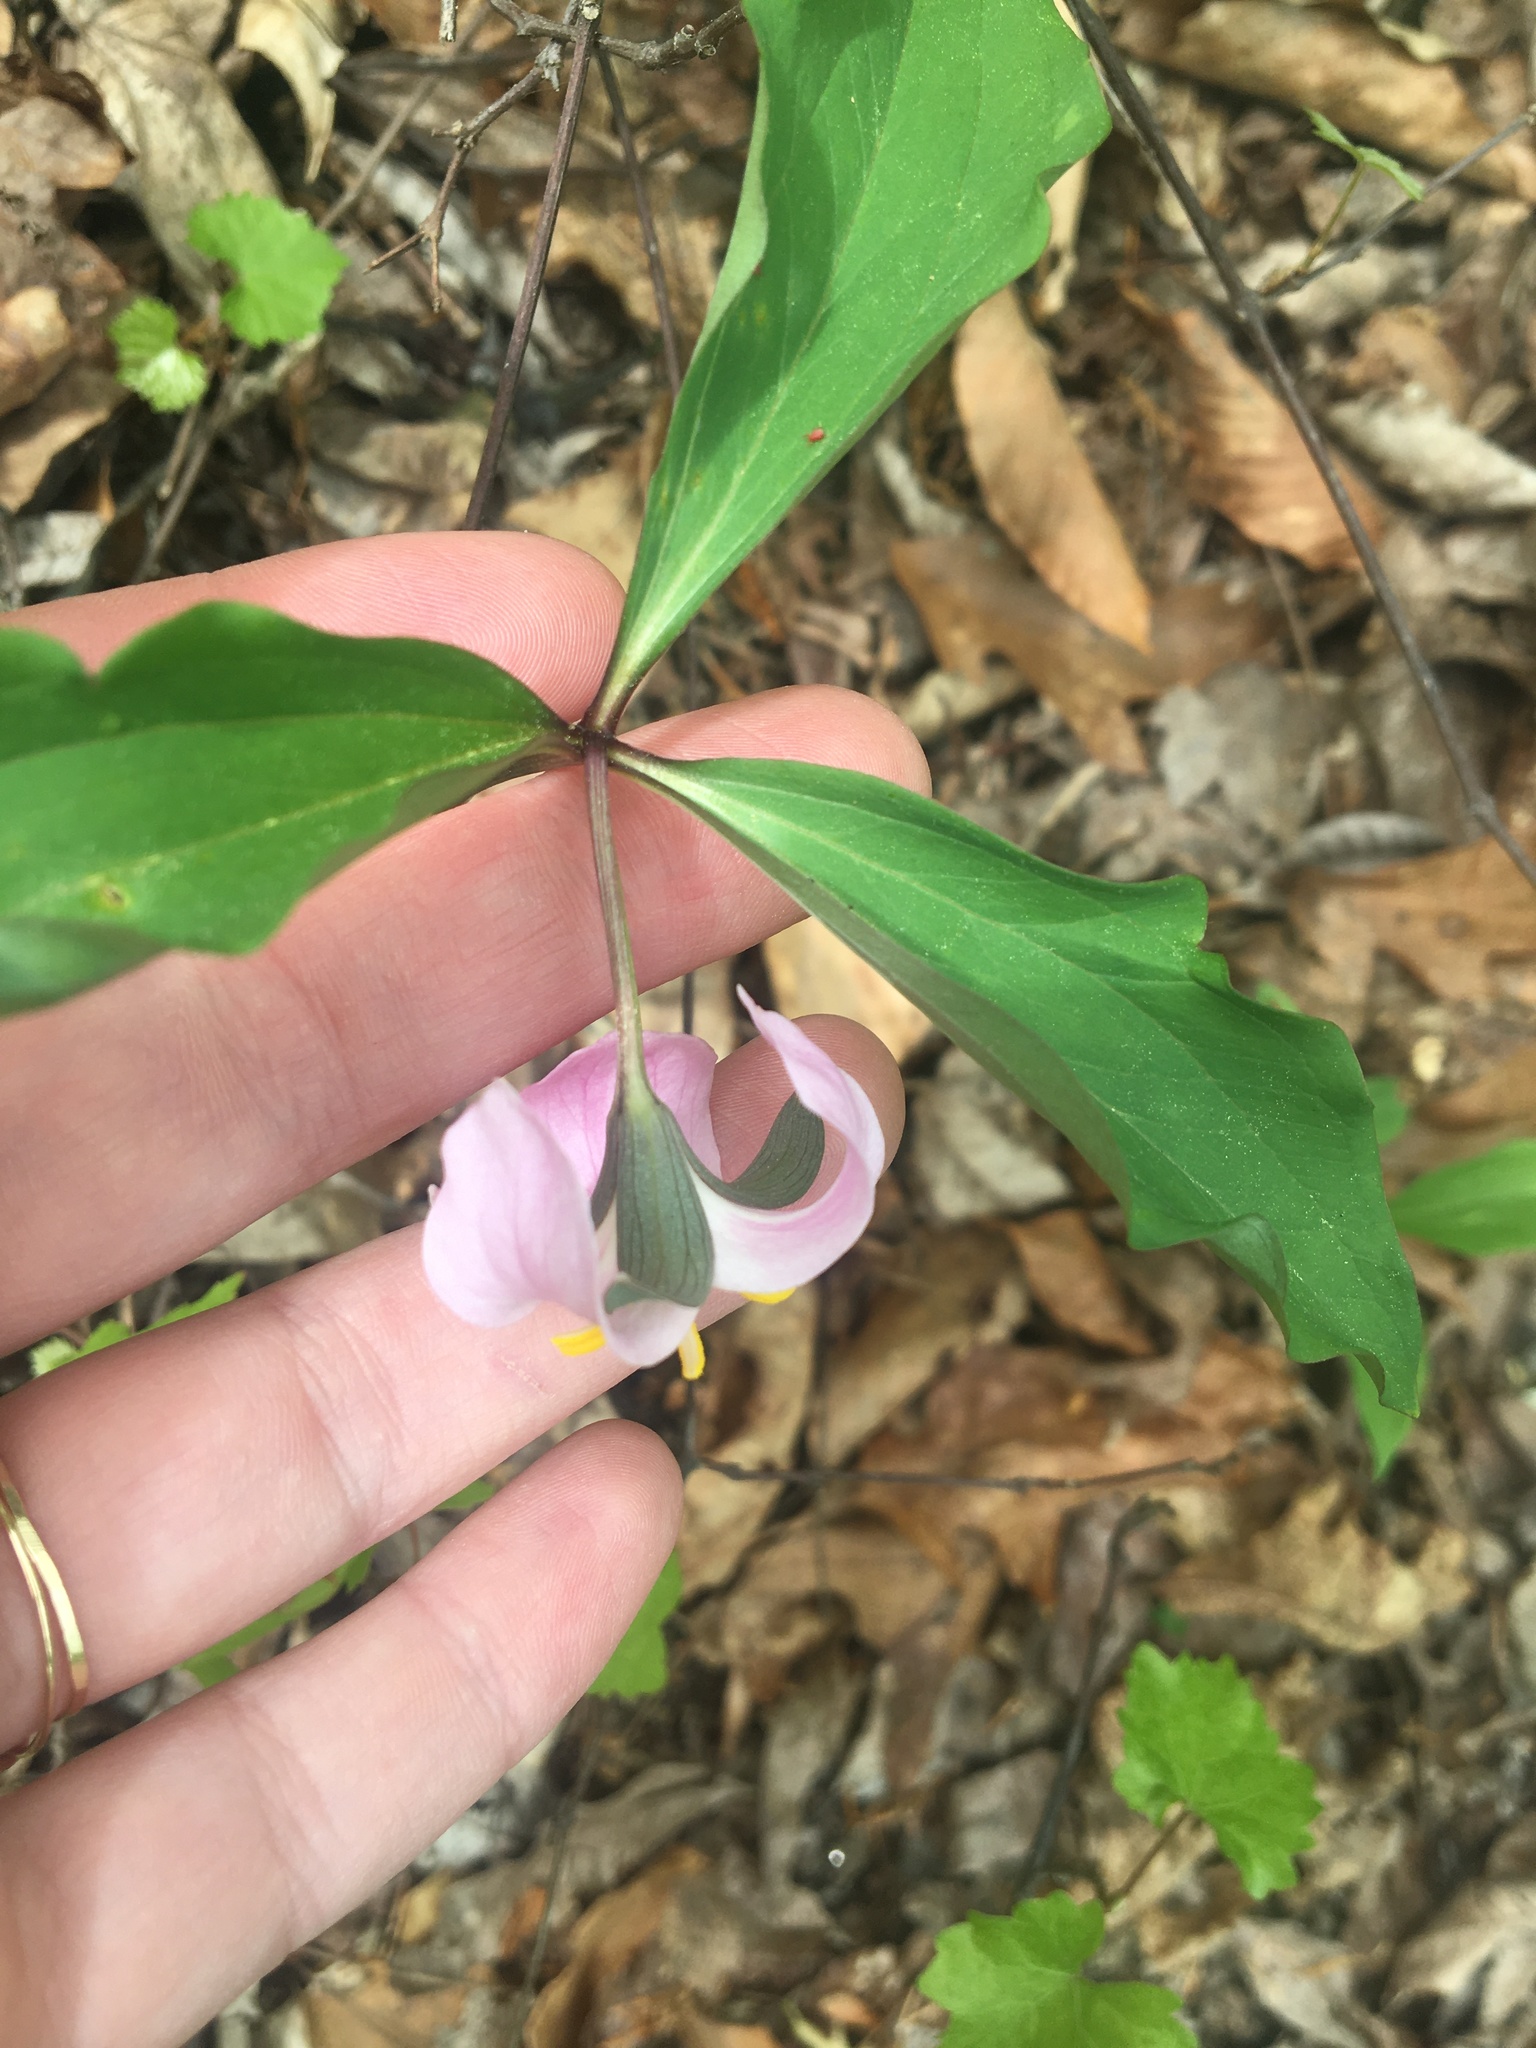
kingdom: Plantae
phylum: Tracheophyta
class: Liliopsida
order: Liliales
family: Melanthiaceae
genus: Trillium
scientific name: Trillium catesbaei
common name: Bashful trillium
